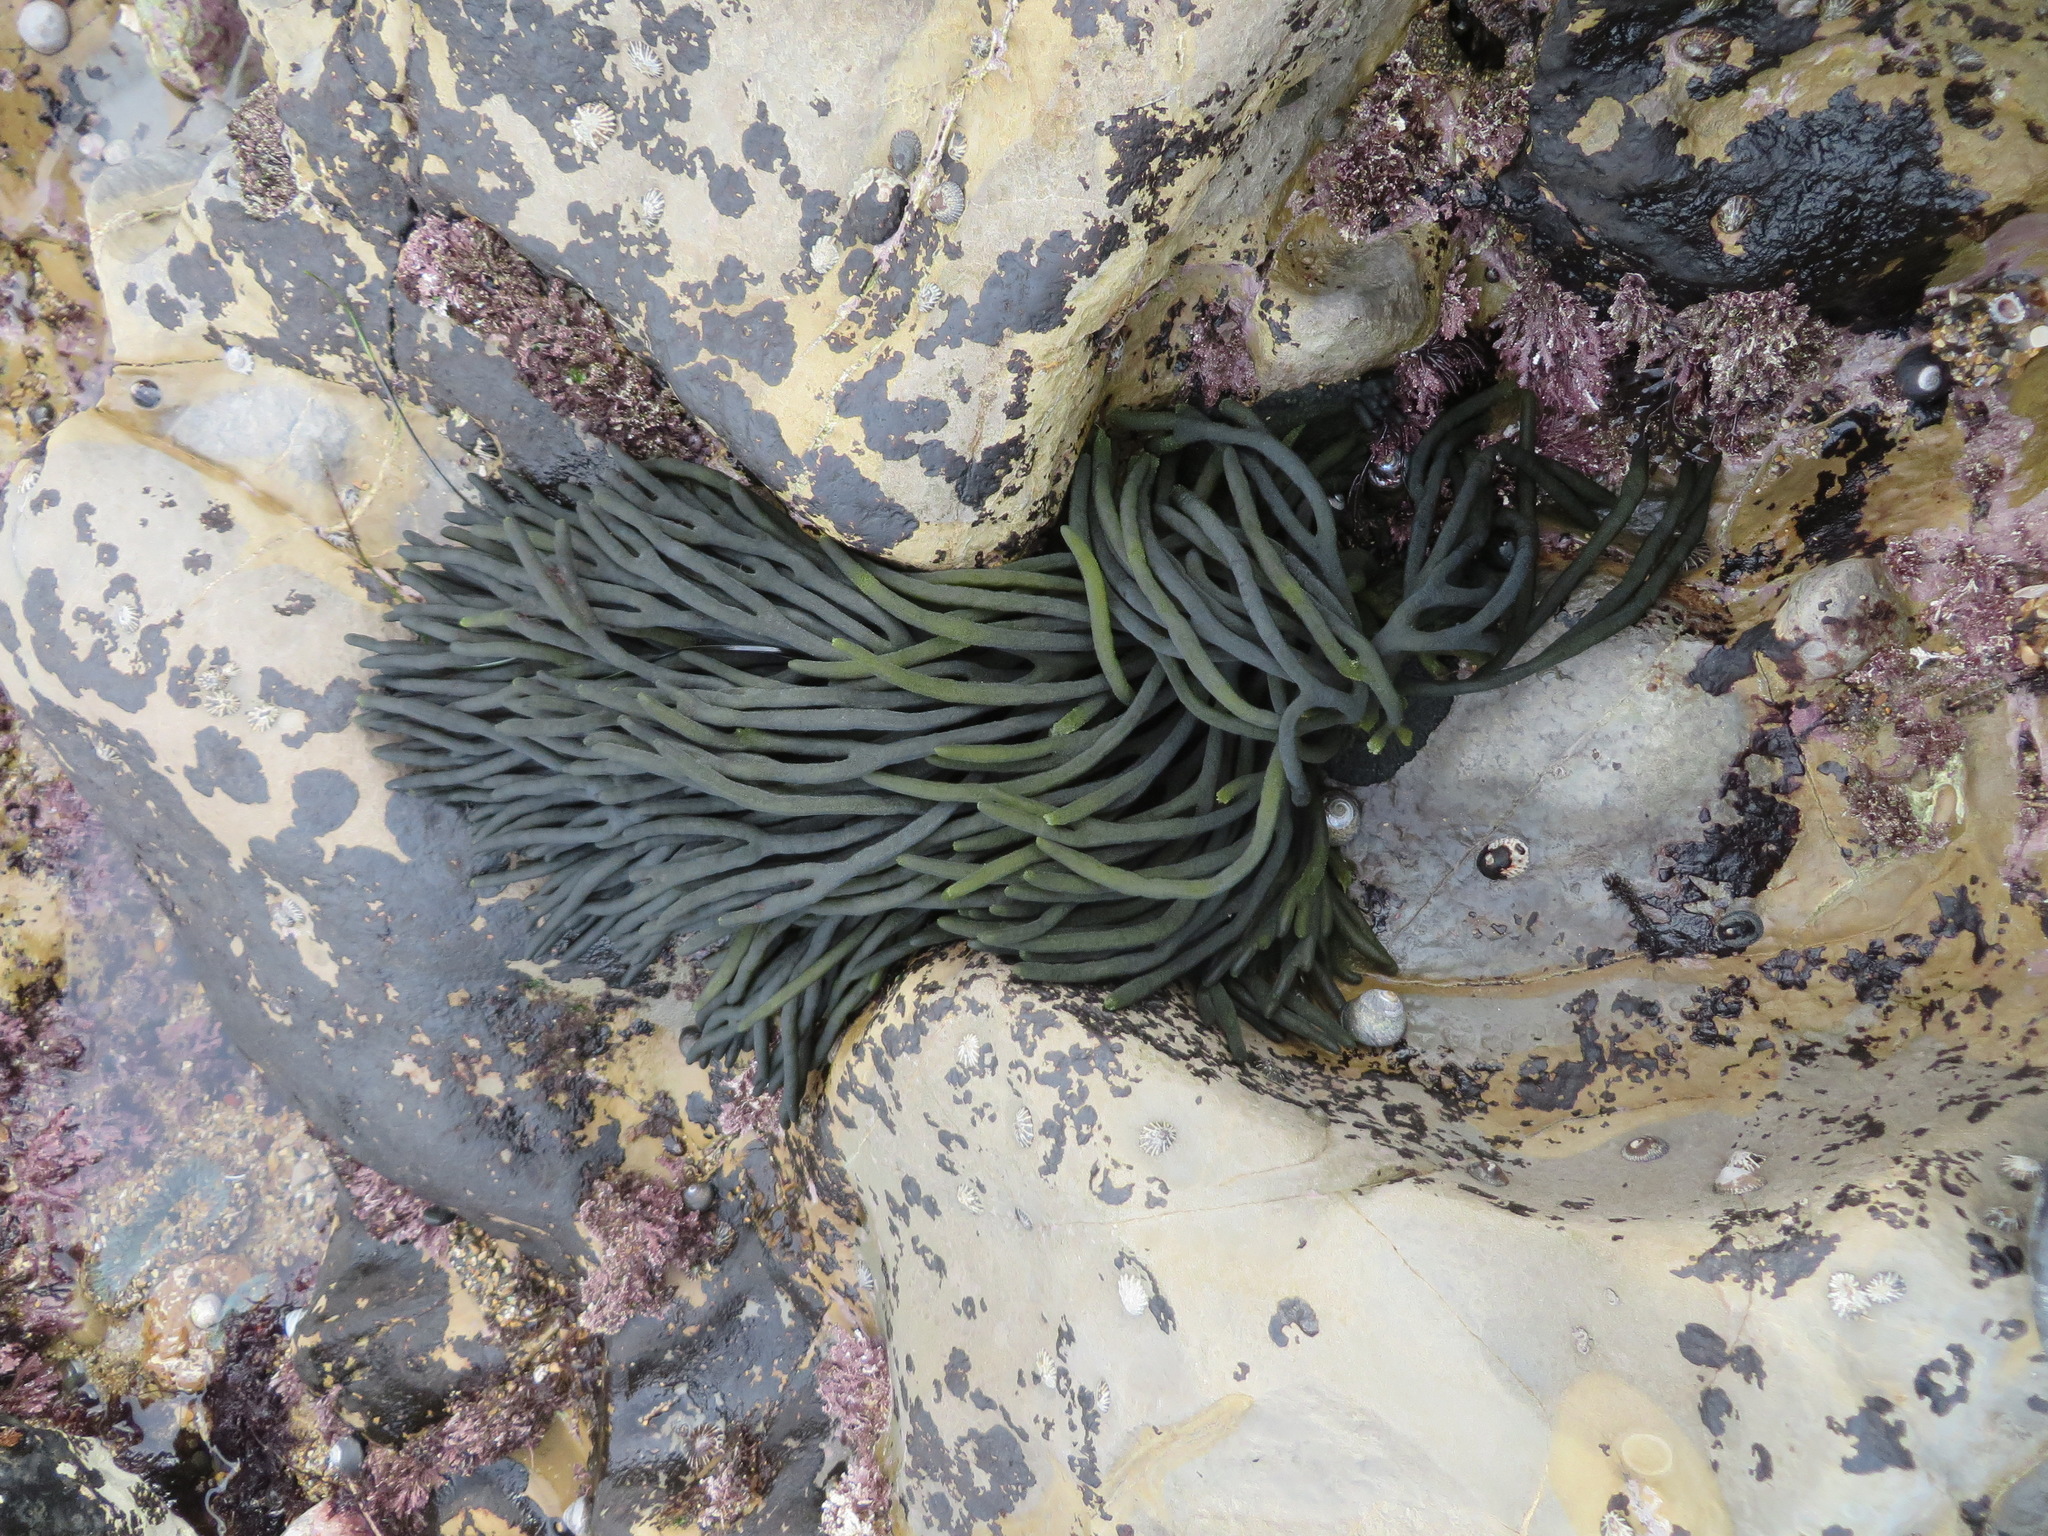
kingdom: Plantae
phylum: Chlorophyta
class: Ulvophyceae
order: Bryopsidales
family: Codiaceae
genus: Codium
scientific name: Codium fragile
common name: Dead man's fingers
